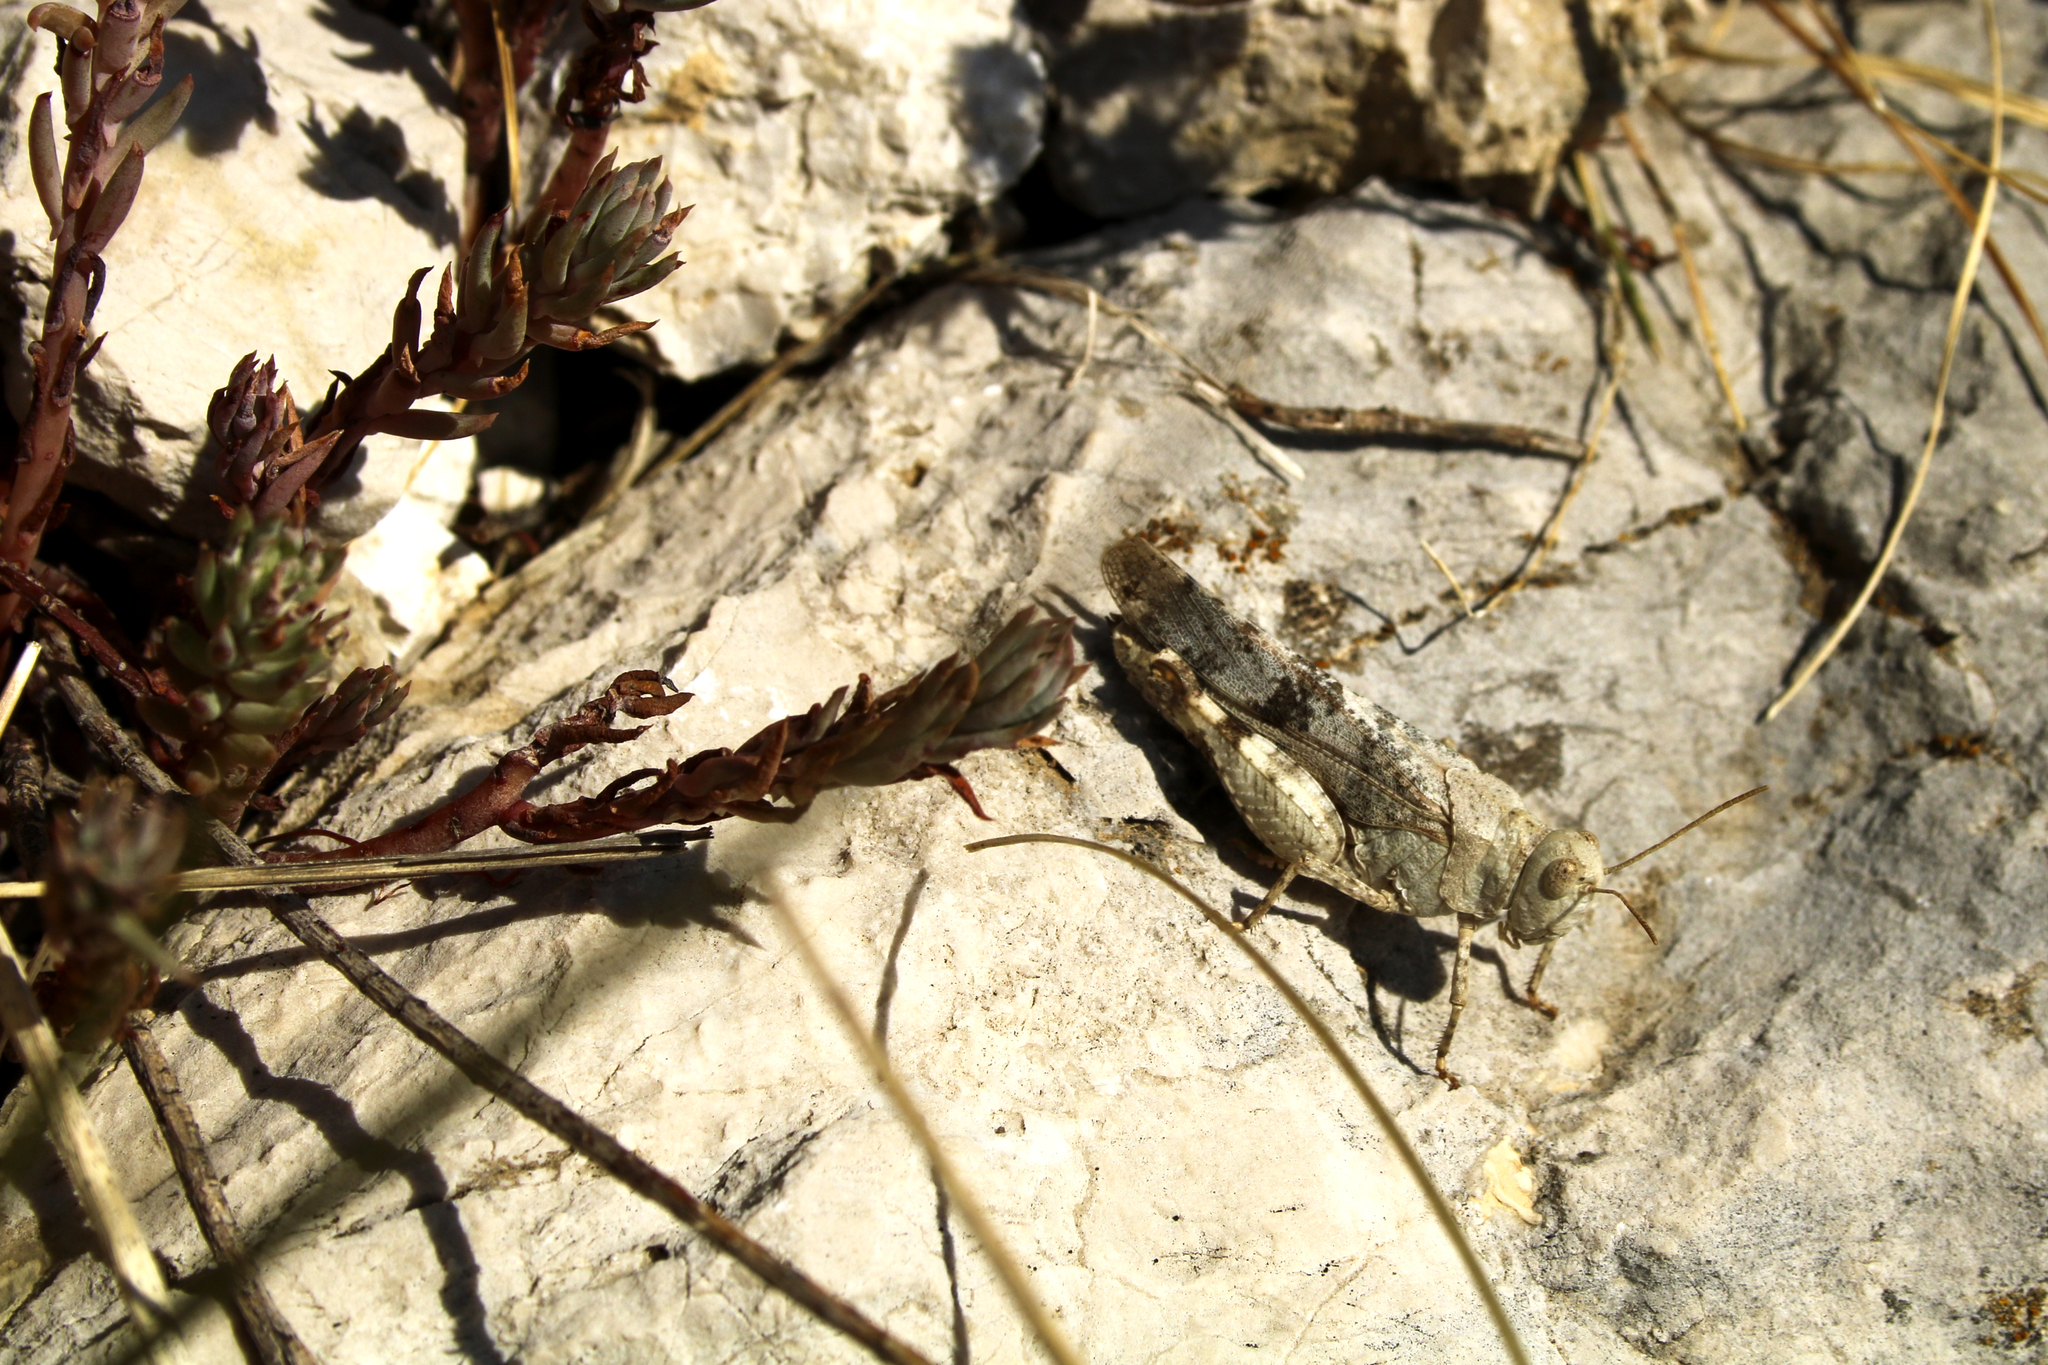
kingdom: Animalia
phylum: Arthropoda
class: Insecta
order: Orthoptera
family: Acrididae
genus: Oedipoda
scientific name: Oedipoda germanica
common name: Red band-winged grasshopper
